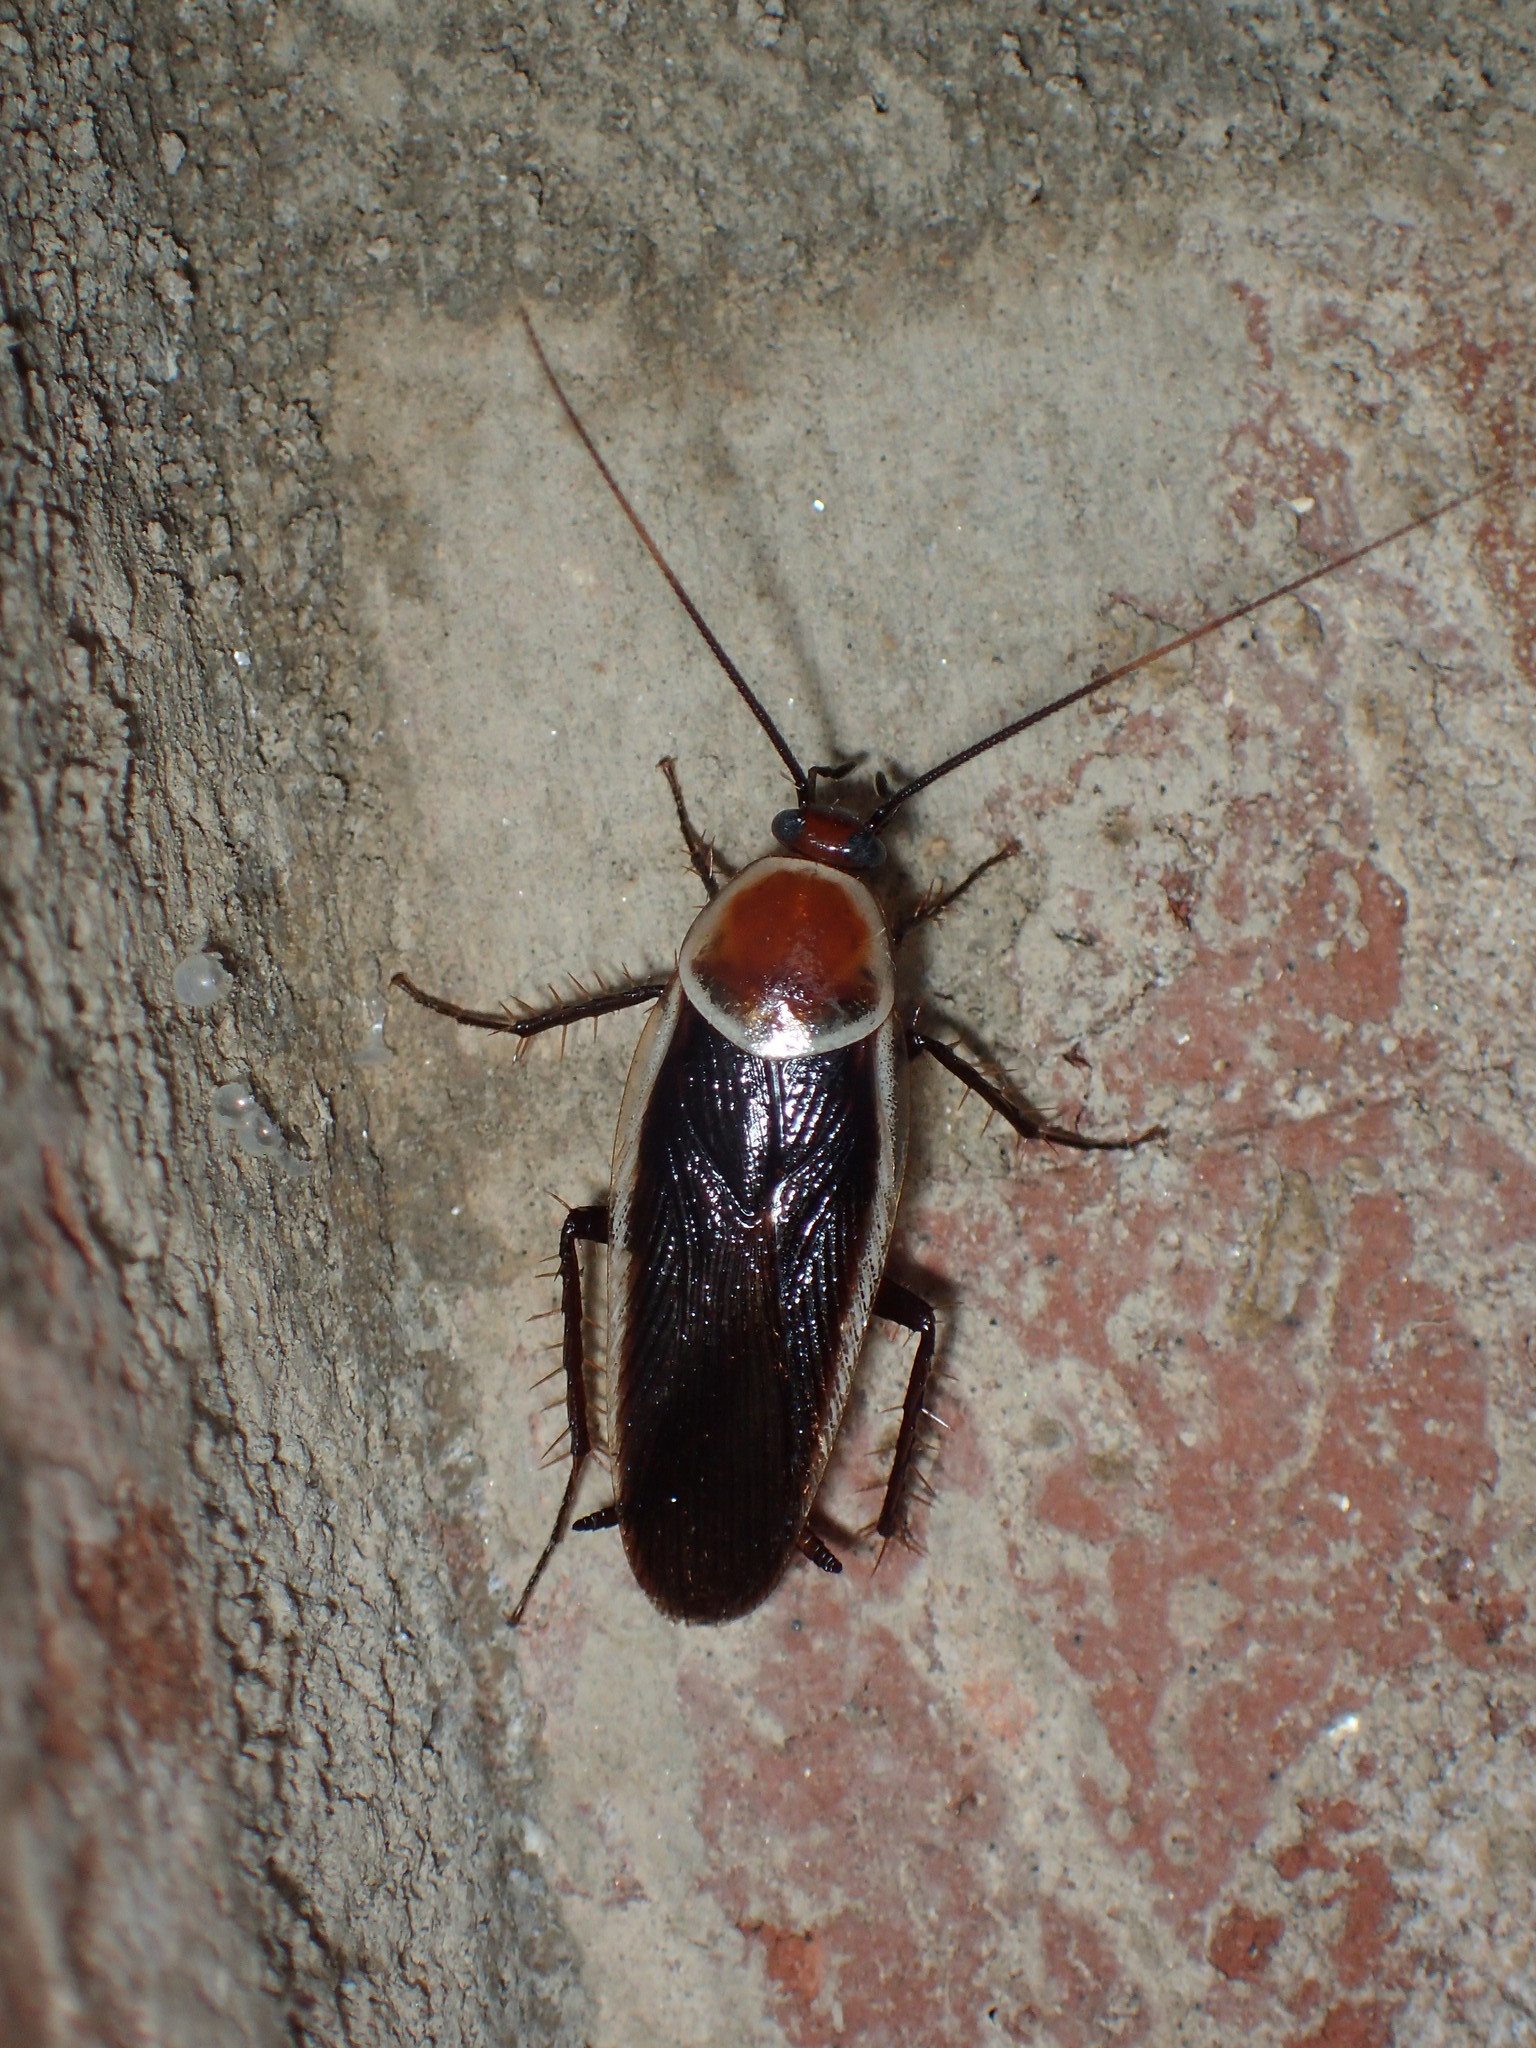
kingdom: Animalia
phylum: Arthropoda
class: Insecta
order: Blattodea
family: Ectobiidae
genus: Pseudomops
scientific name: Pseudomops septentrionalis
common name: Pale-bordered field cockroach
